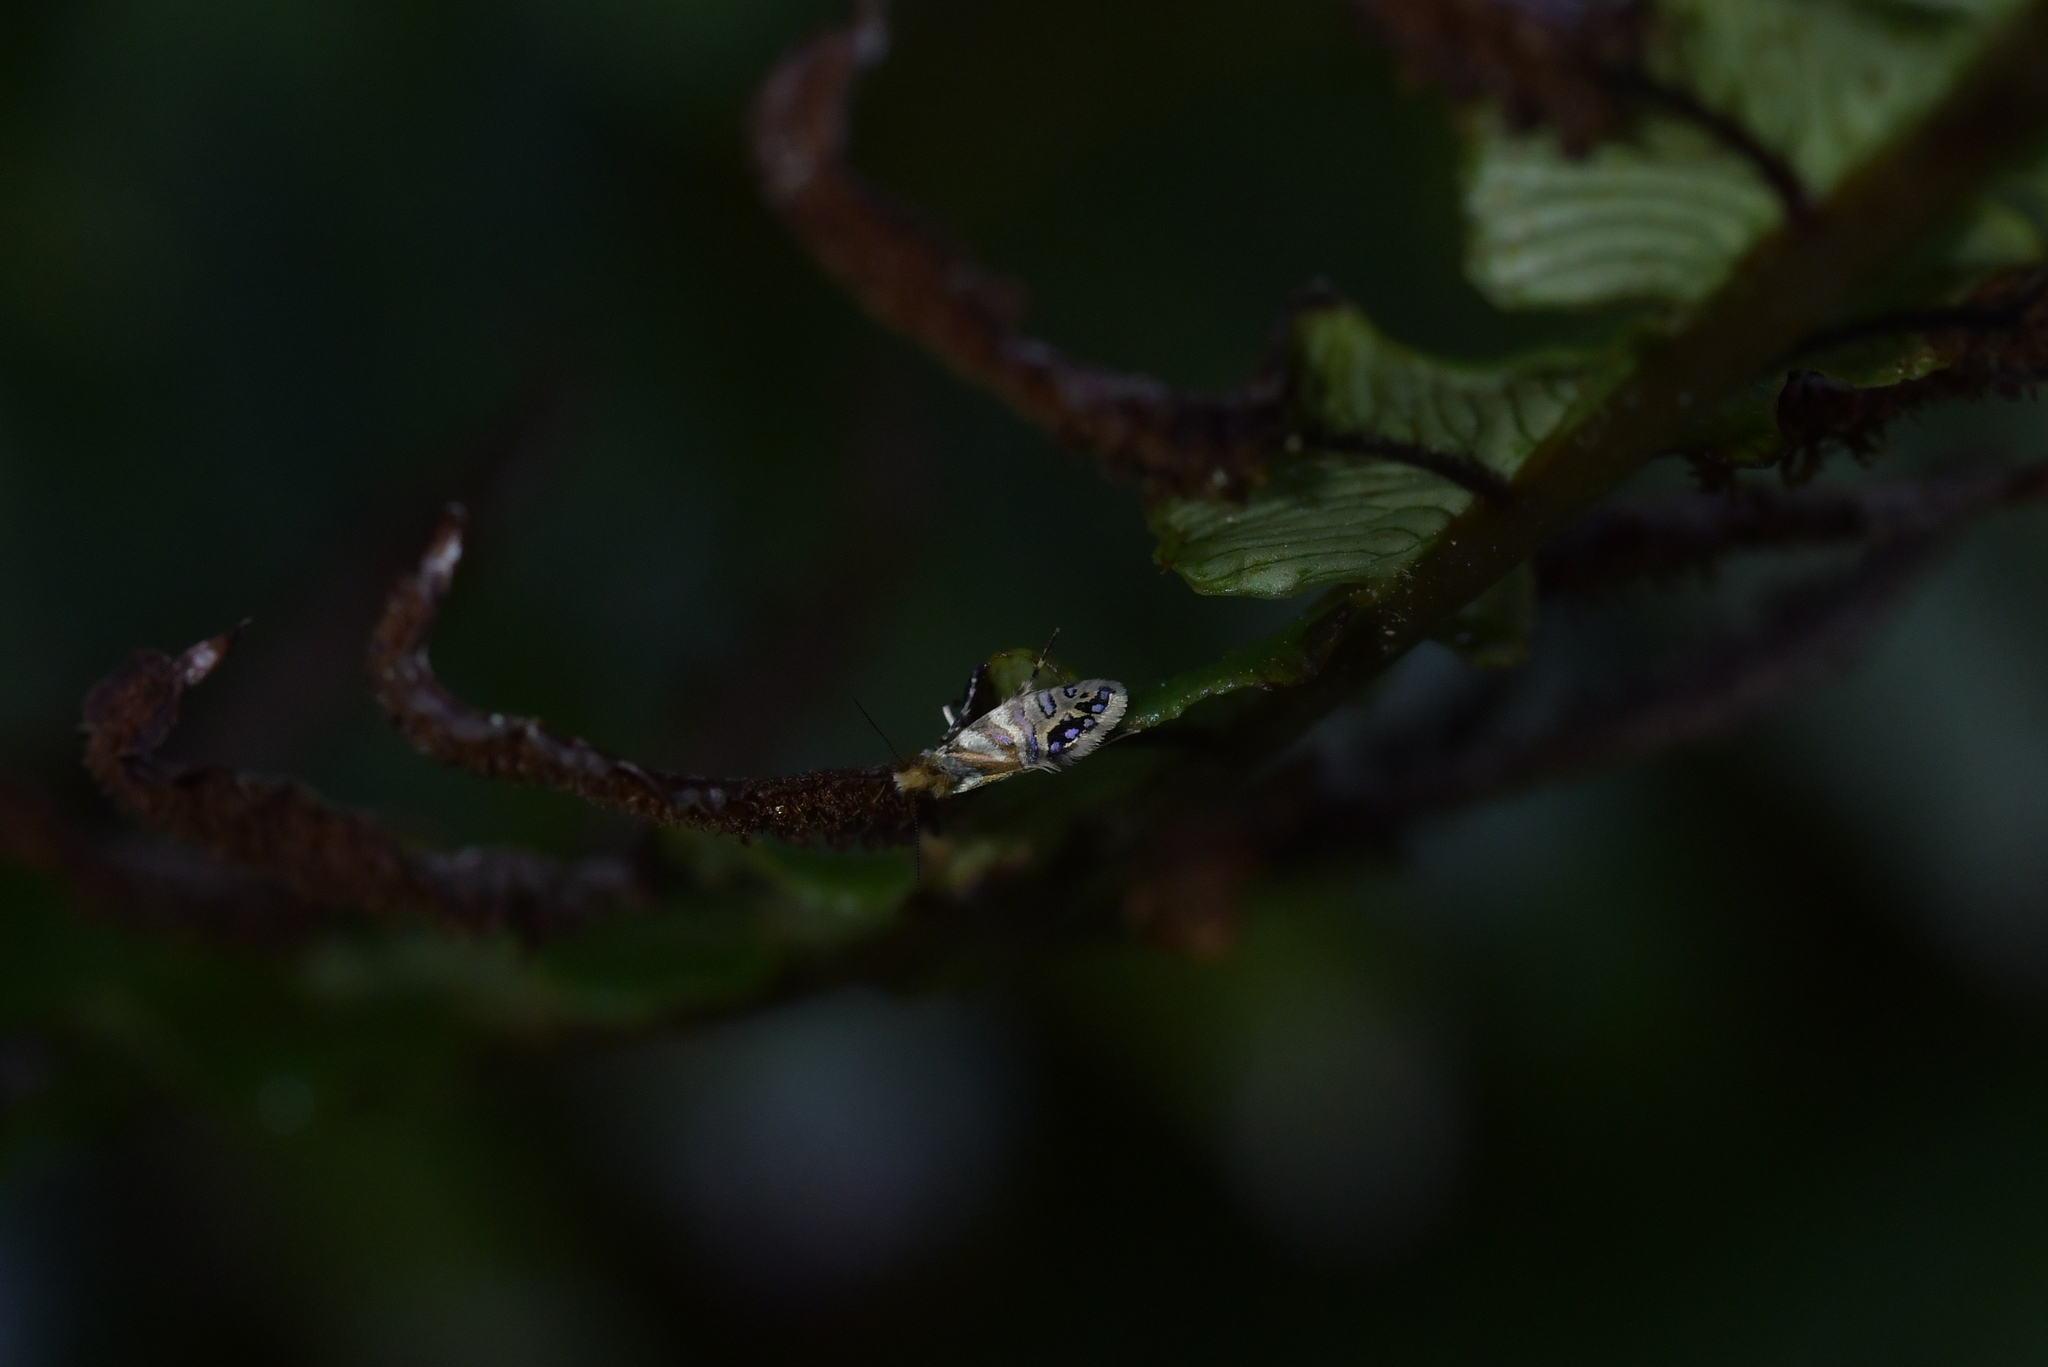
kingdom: Animalia
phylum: Arthropoda
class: Insecta
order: Lepidoptera
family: Micropterigidae
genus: Sabatinca
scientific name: Sabatinca doroxena
